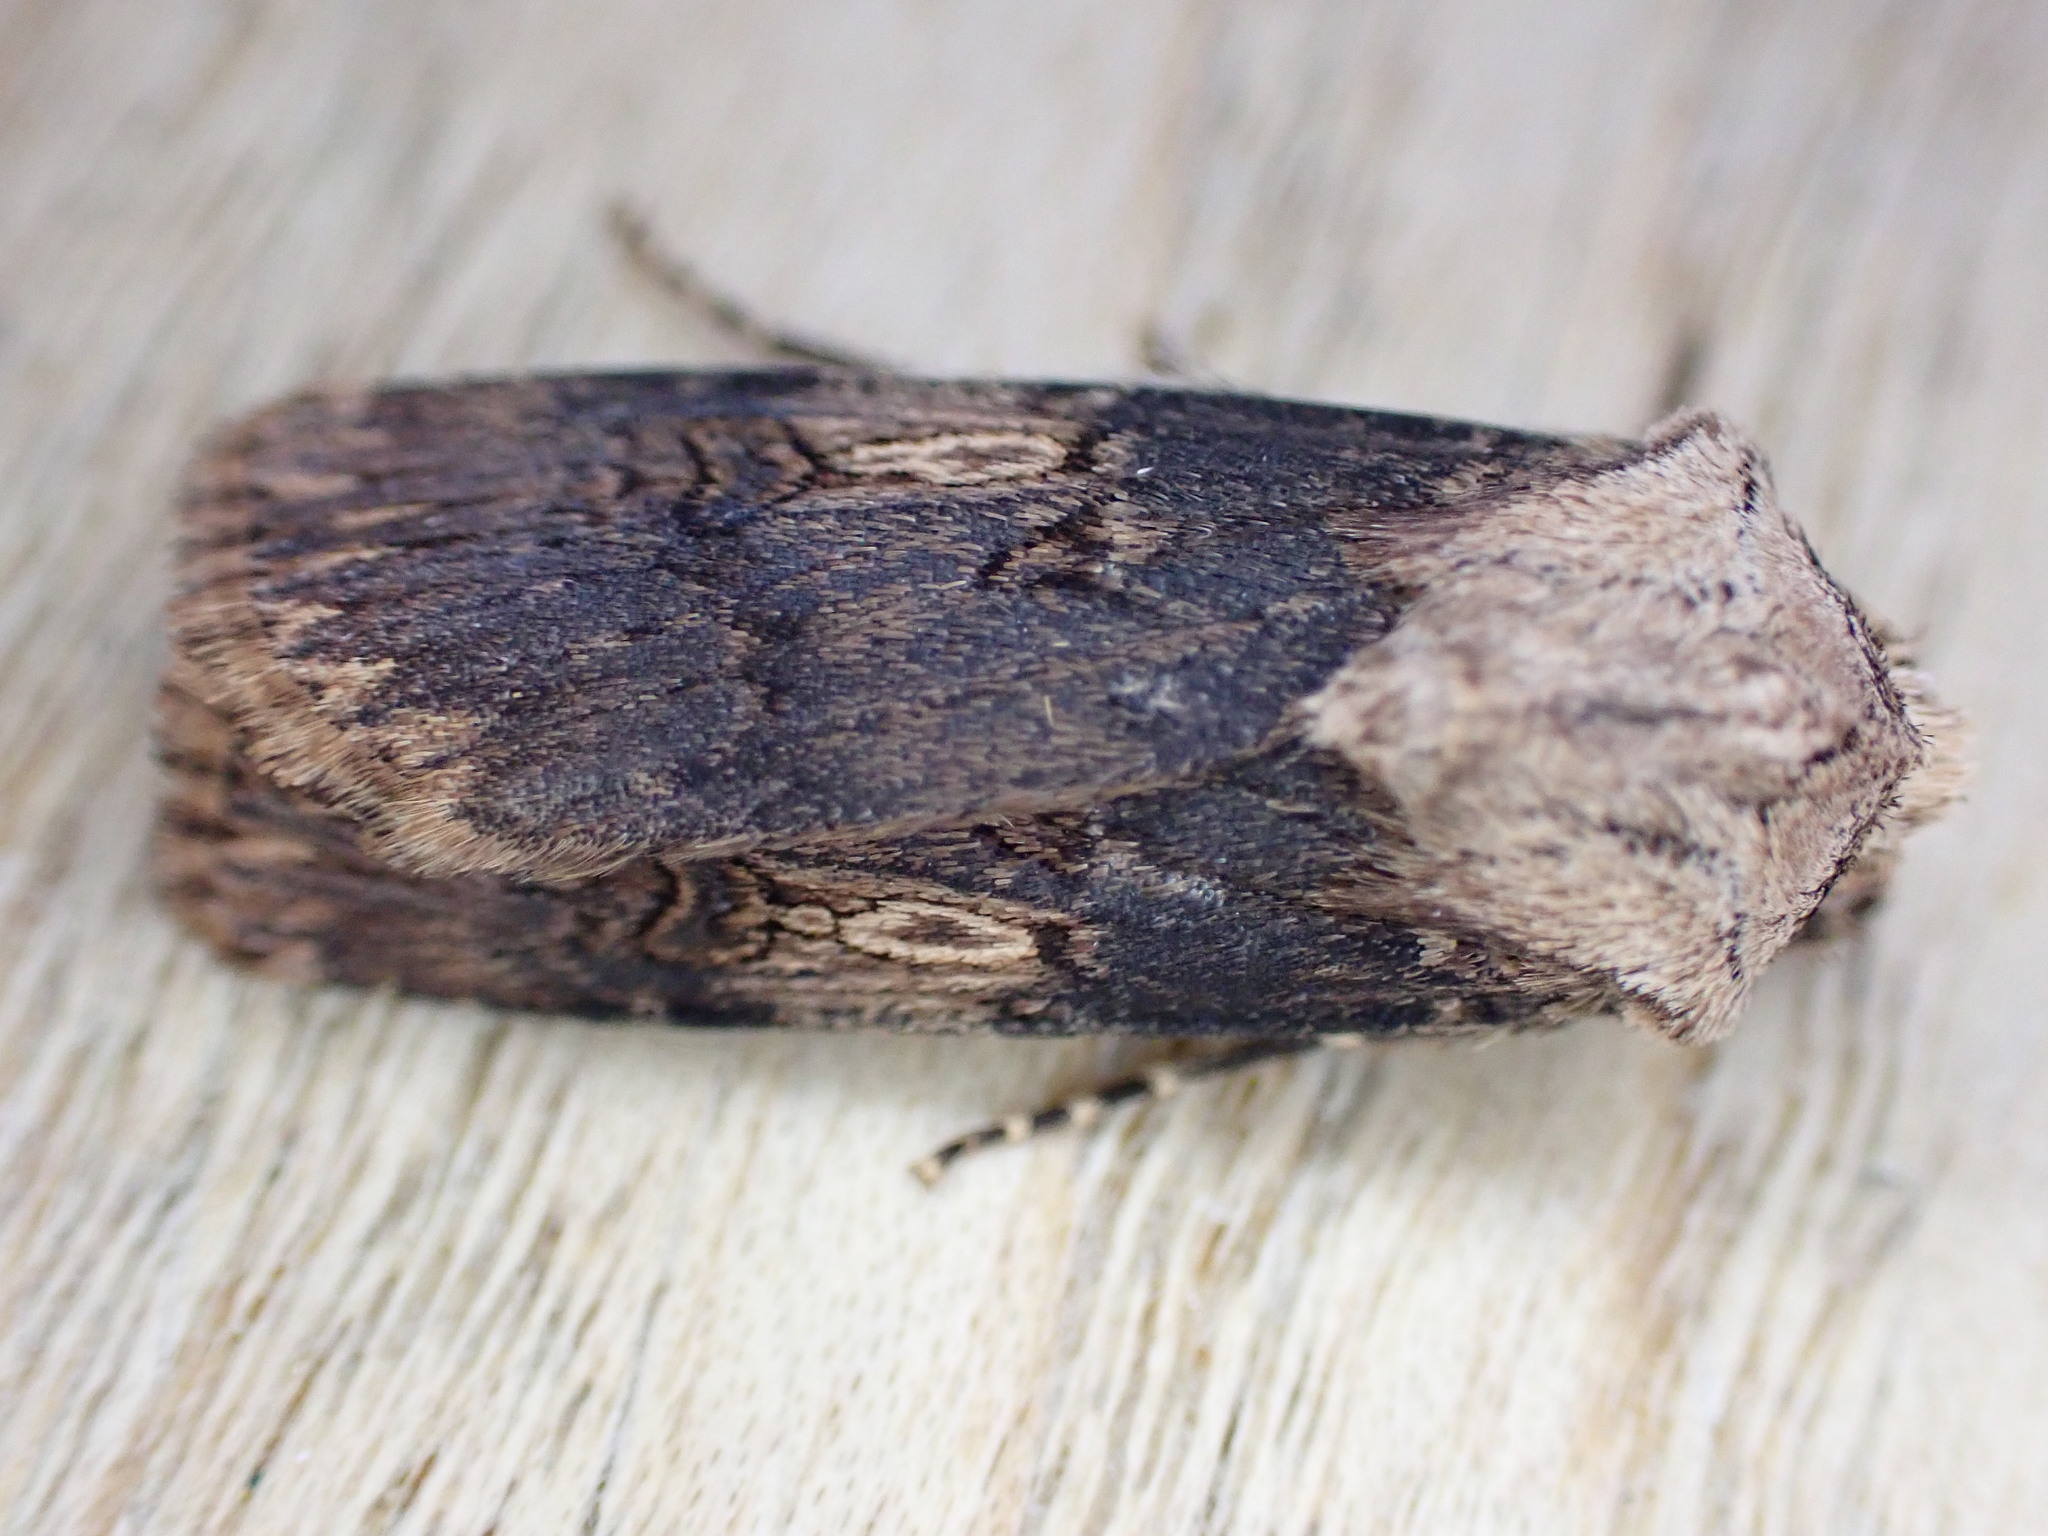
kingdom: Animalia
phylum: Arthropoda
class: Insecta
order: Lepidoptera
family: Noctuidae
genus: Agrotis
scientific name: Agrotis puta
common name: Shuttle-shaped dart
